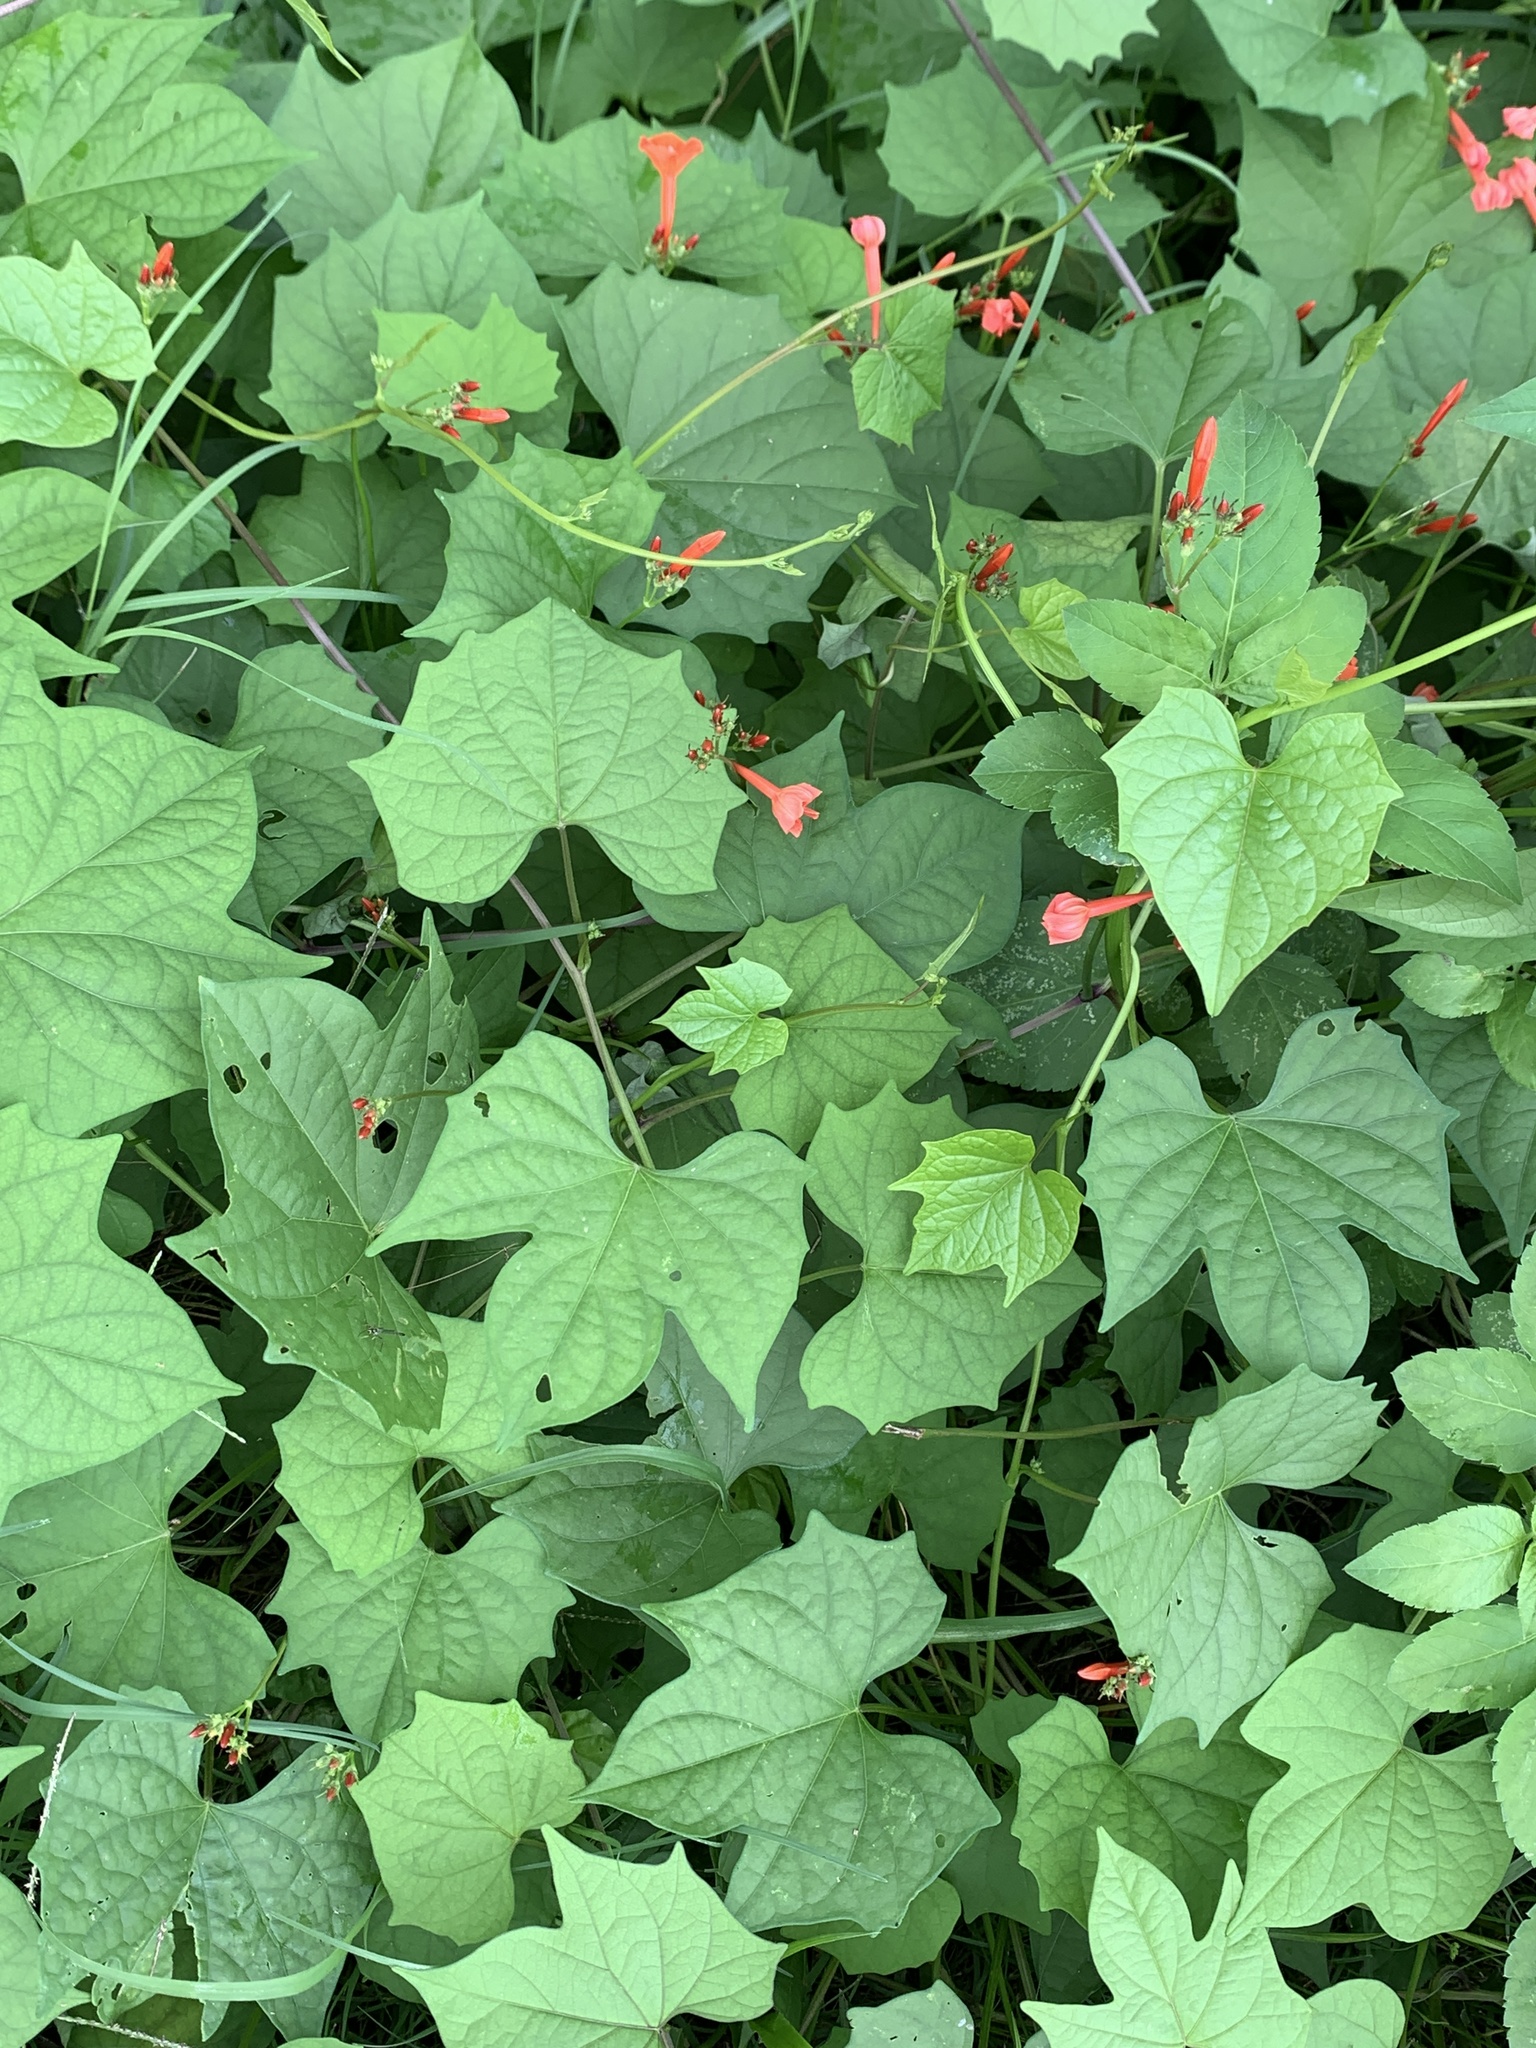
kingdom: Plantae
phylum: Tracheophyta
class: Magnoliopsida
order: Solanales
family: Convolvulaceae
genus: Ipomoea
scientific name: Ipomoea hederifolia
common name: Ivy-leaf morning-glory
